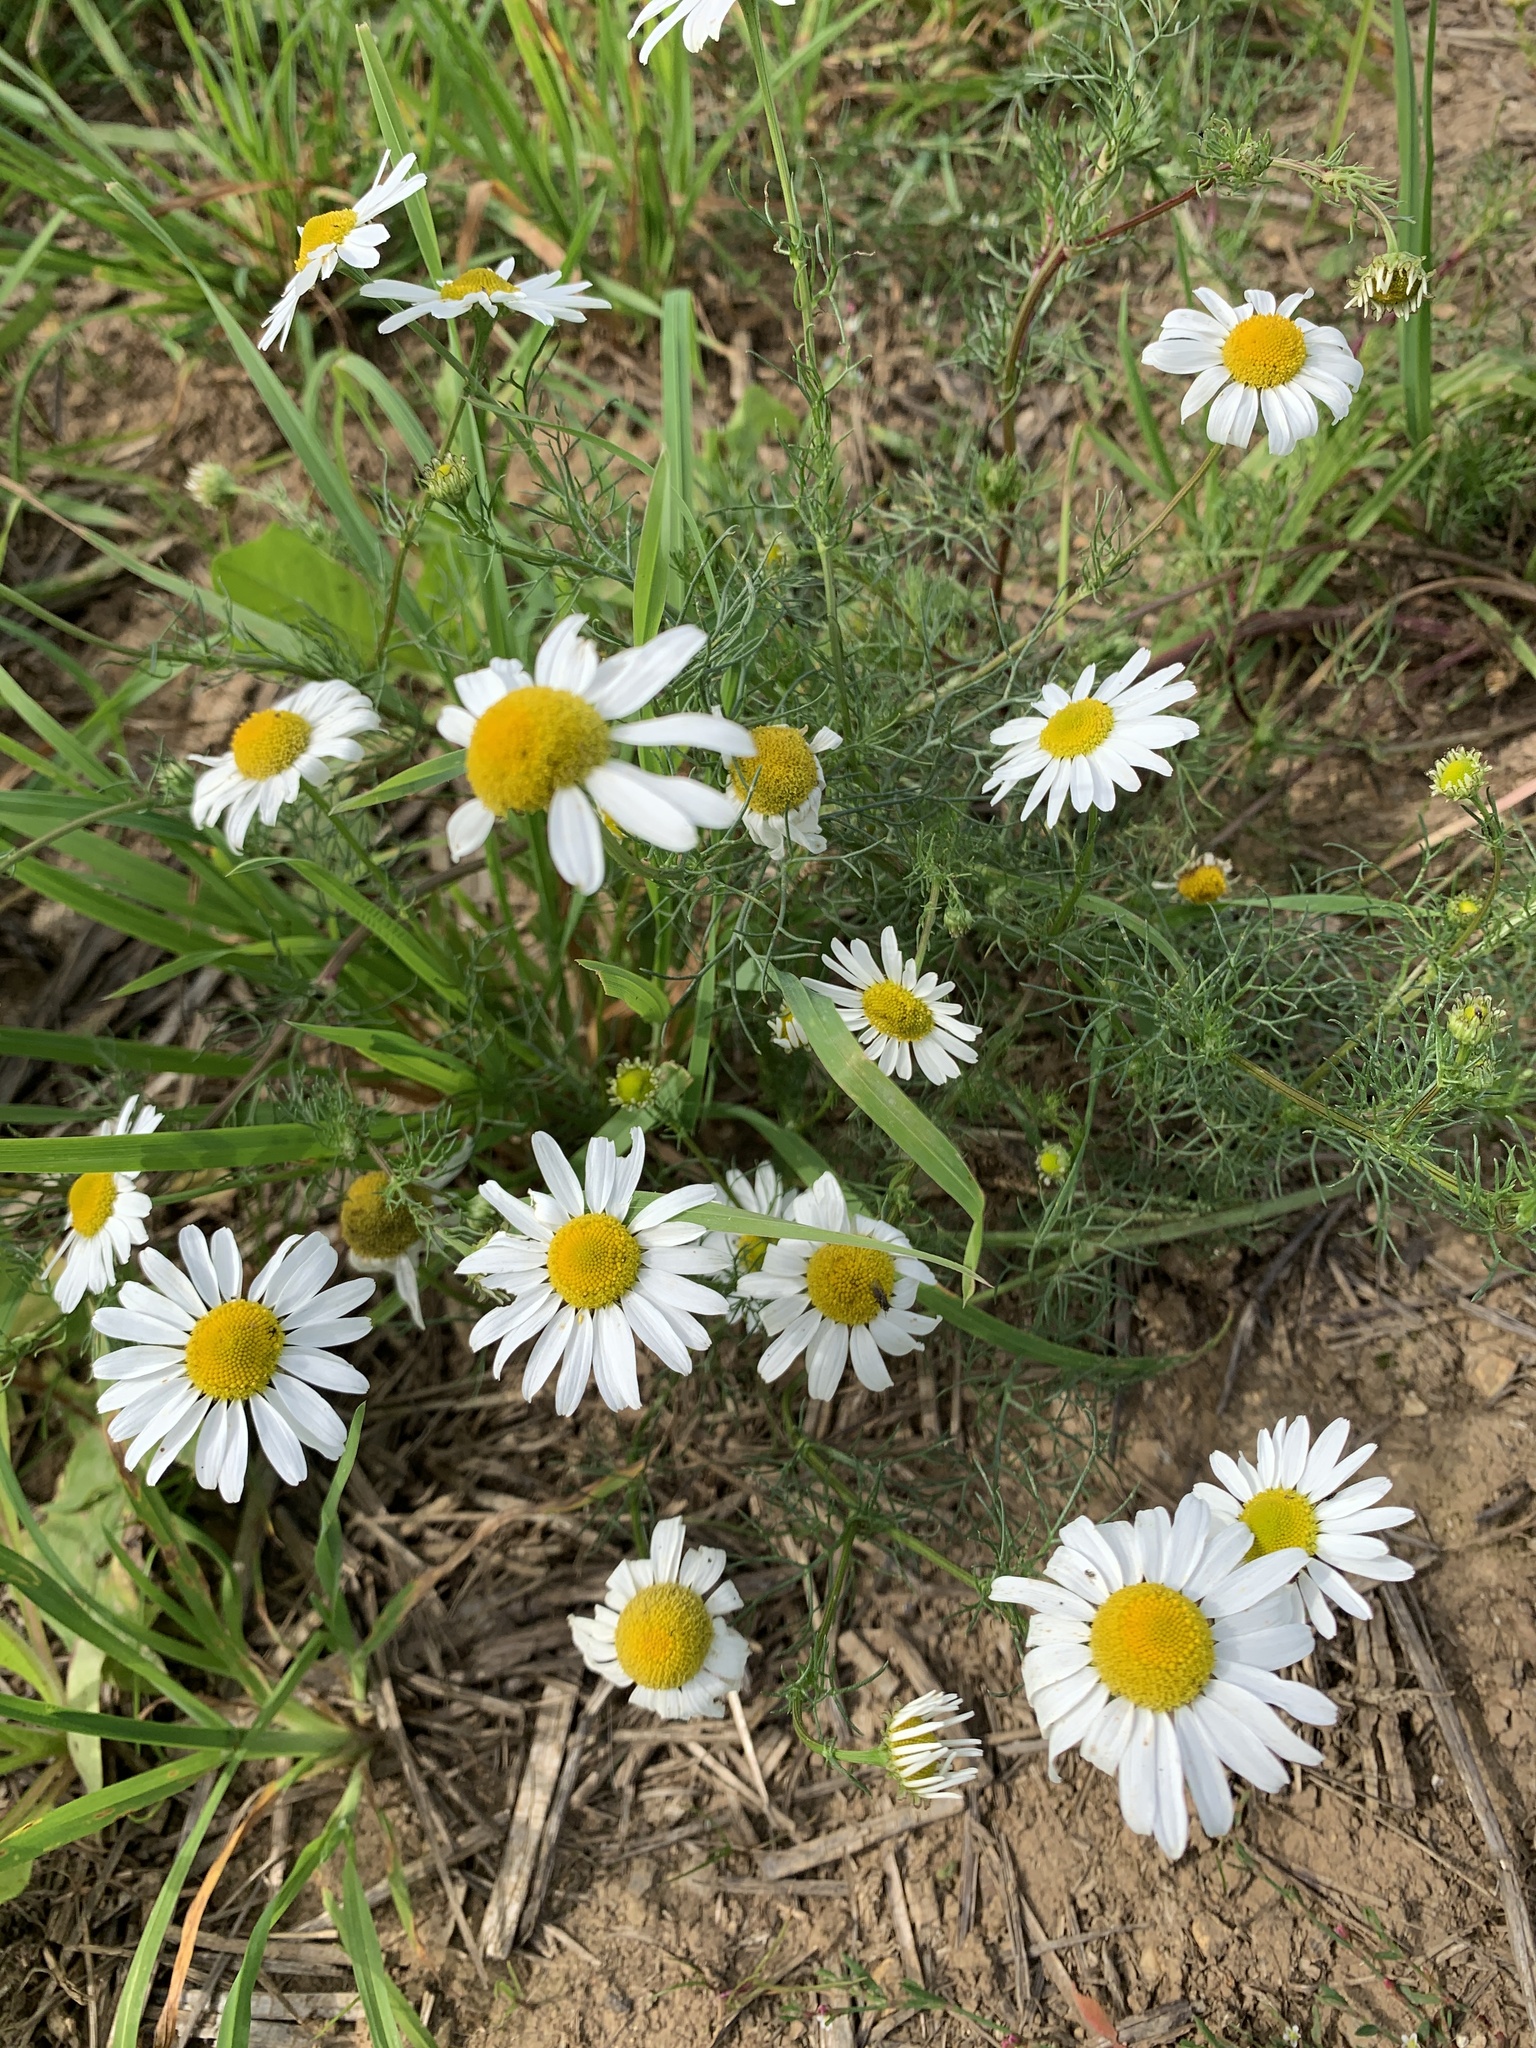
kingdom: Plantae
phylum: Tracheophyta
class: Magnoliopsida
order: Asterales
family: Asteraceae
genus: Tripleurospermum
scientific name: Tripleurospermum inodorum
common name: Scentless mayweed
